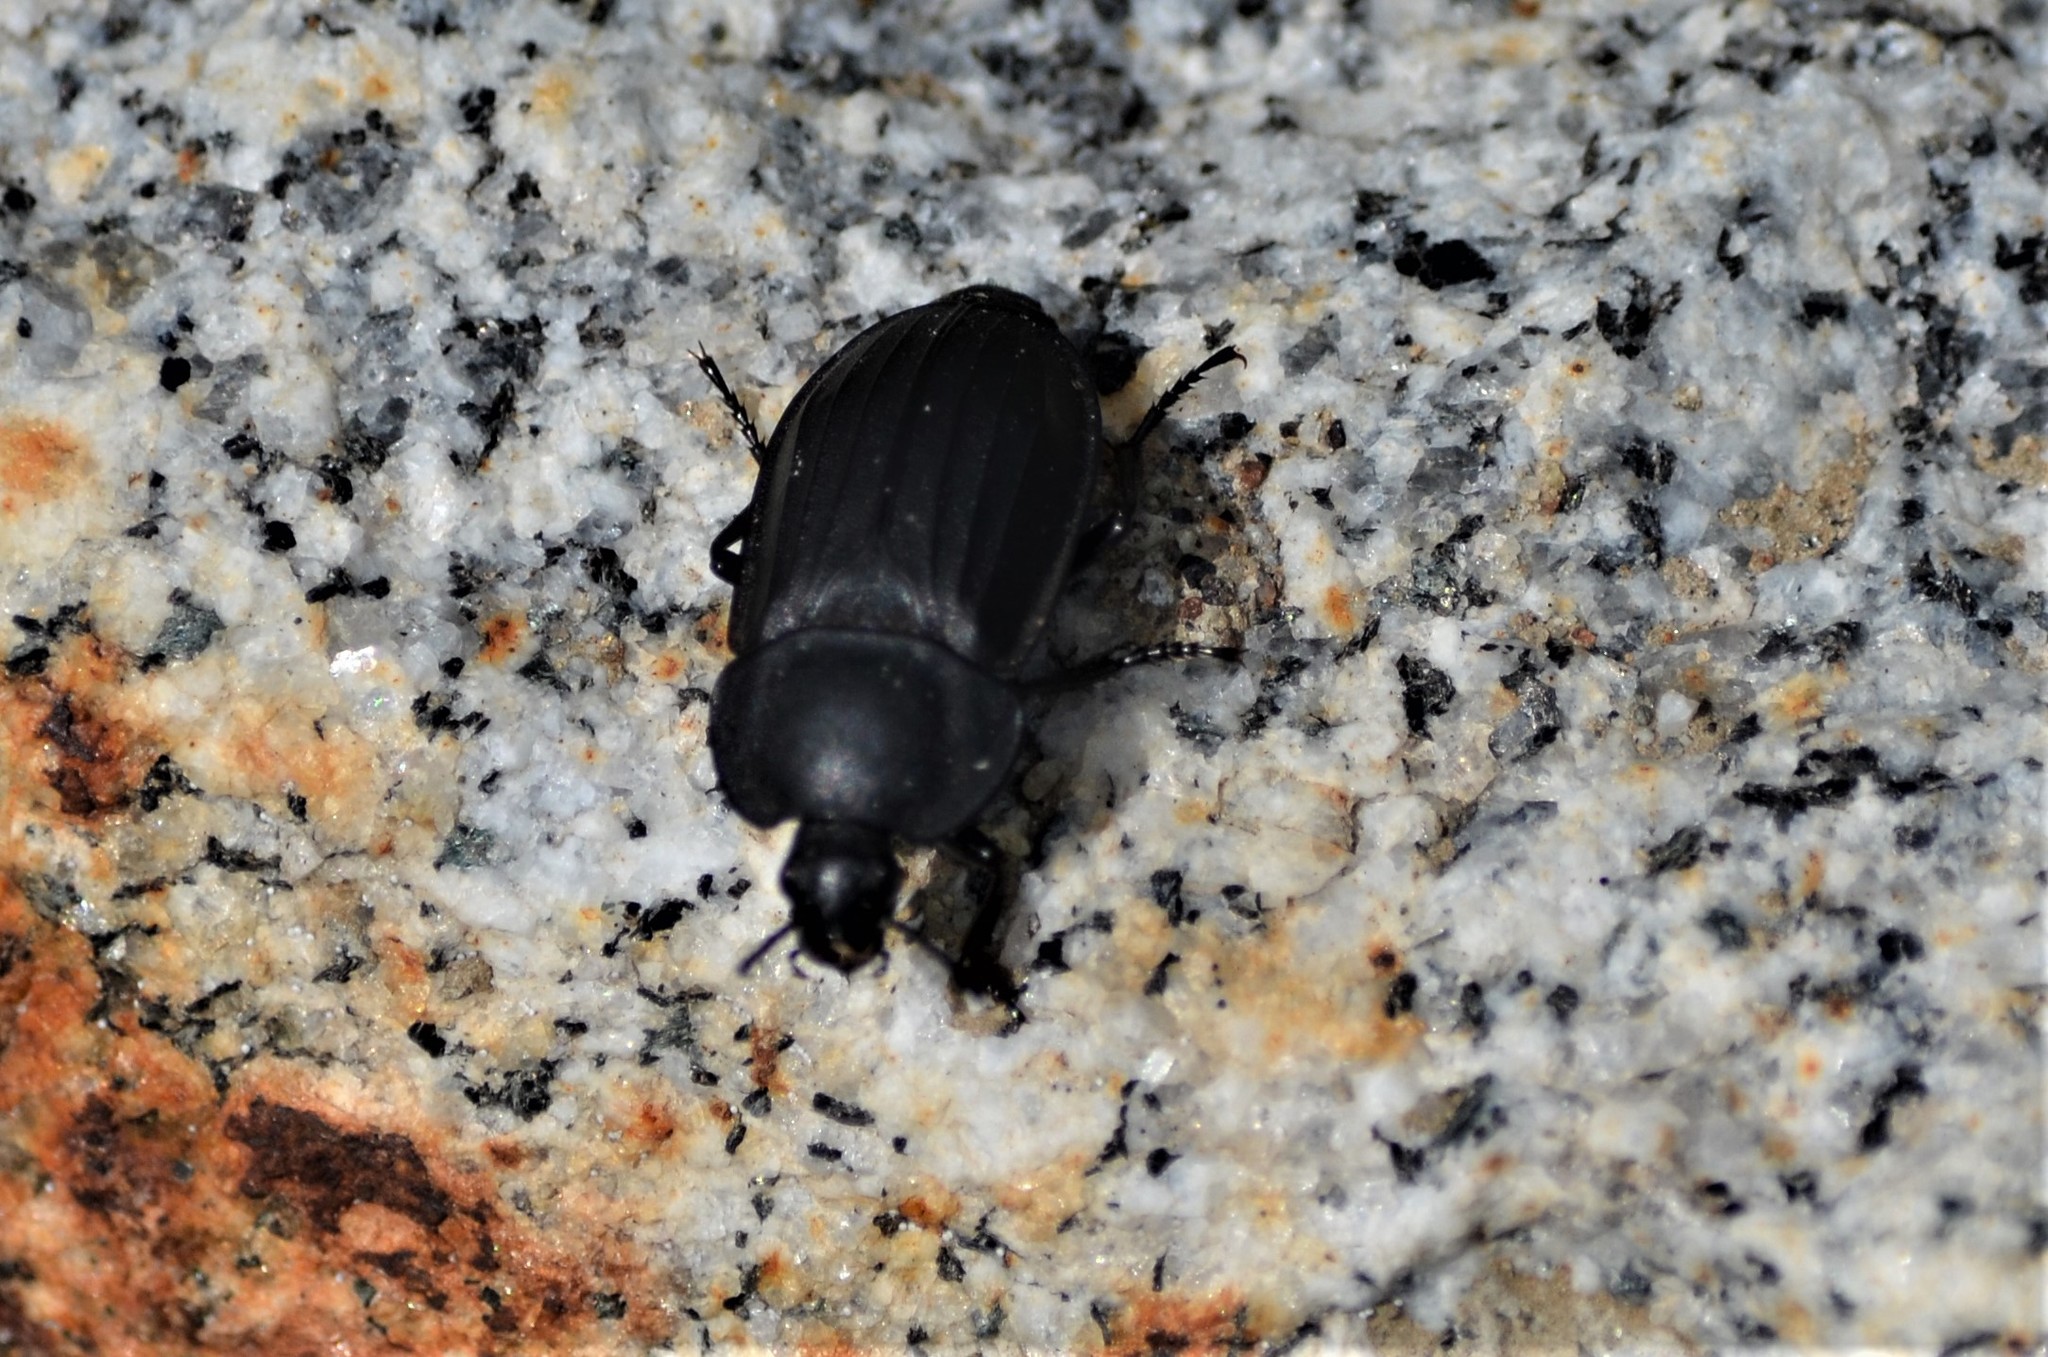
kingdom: Animalia
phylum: Arthropoda
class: Insecta
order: Coleoptera
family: Staphylinidae
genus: Silpha
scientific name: Silpha tristis
